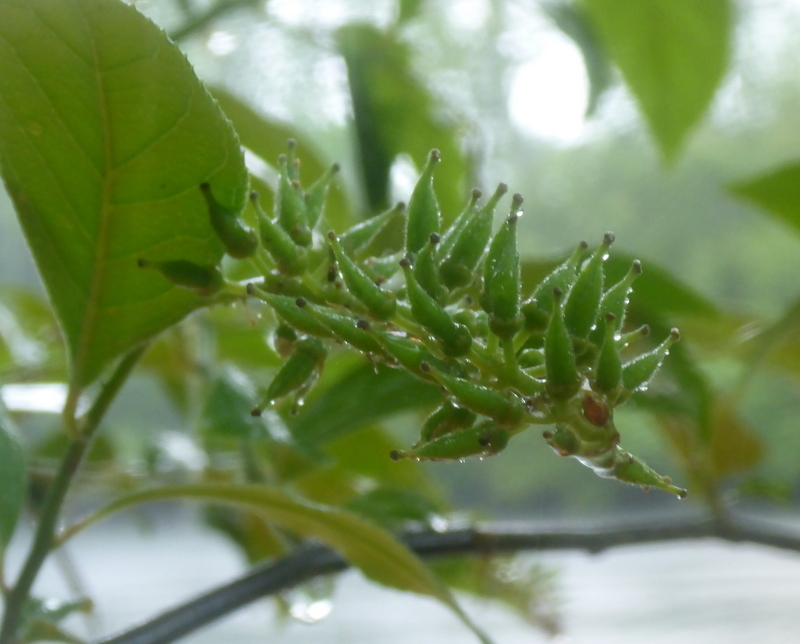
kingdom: Plantae
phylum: Tracheophyta
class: Magnoliopsida
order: Saxifragales
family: Iteaceae
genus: Itea
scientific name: Itea virginica
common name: Sweetspire
